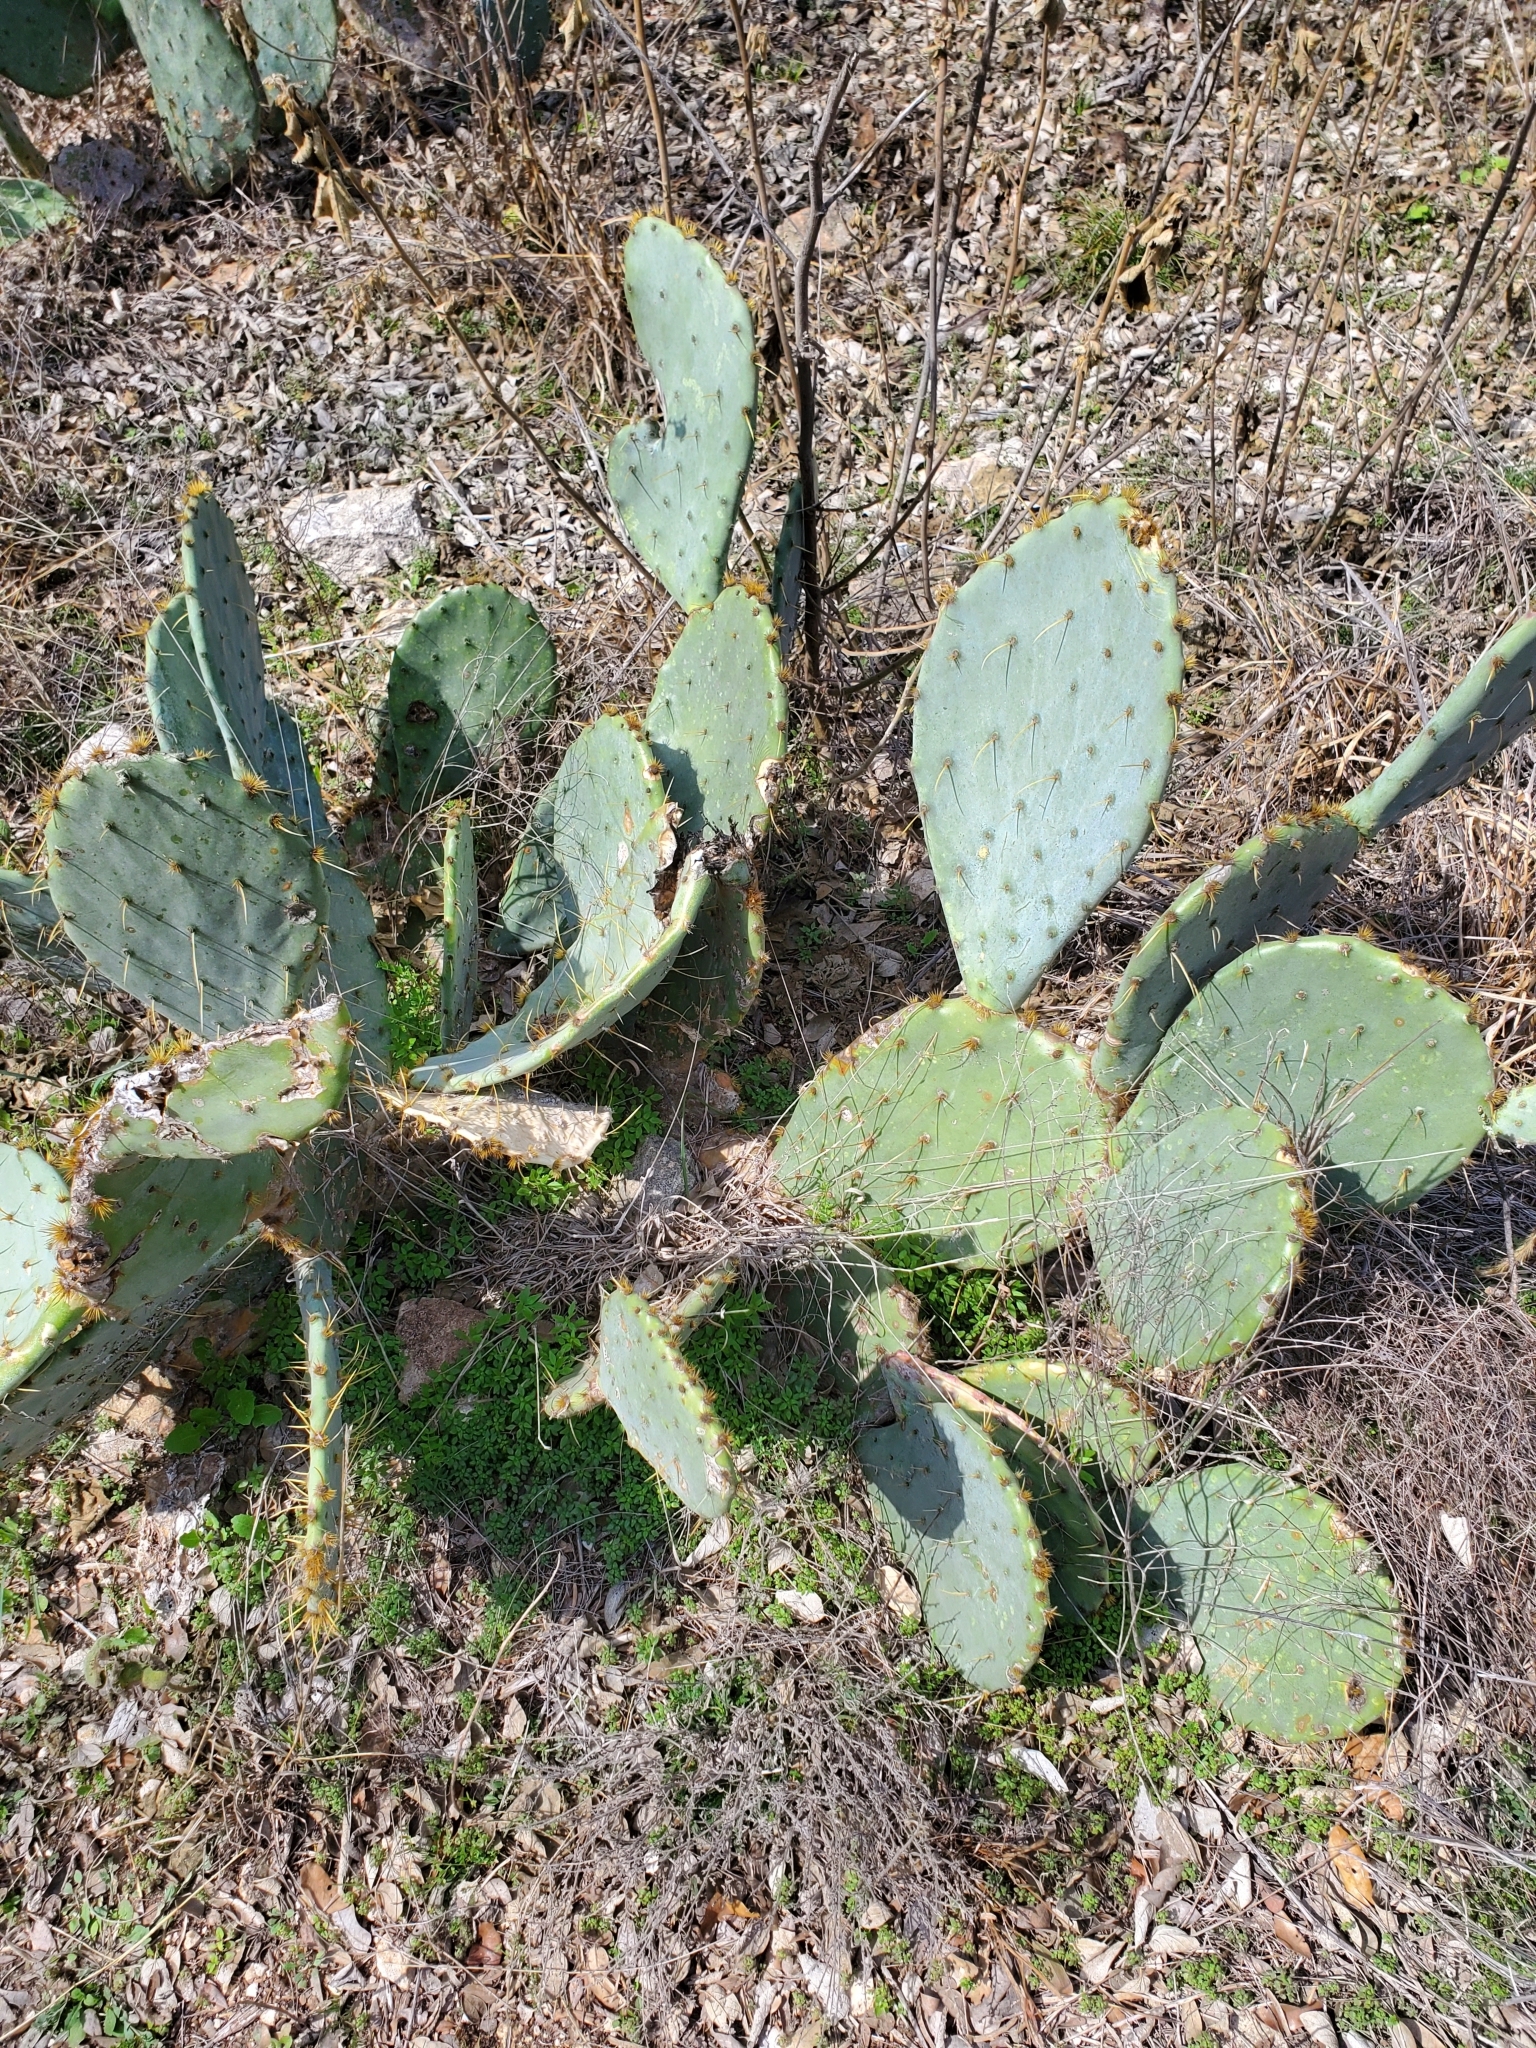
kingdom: Plantae
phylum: Tracheophyta
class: Magnoliopsida
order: Caryophyllales
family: Cactaceae
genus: Opuntia
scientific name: Opuntia engelmannii
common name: Cactus-apple
